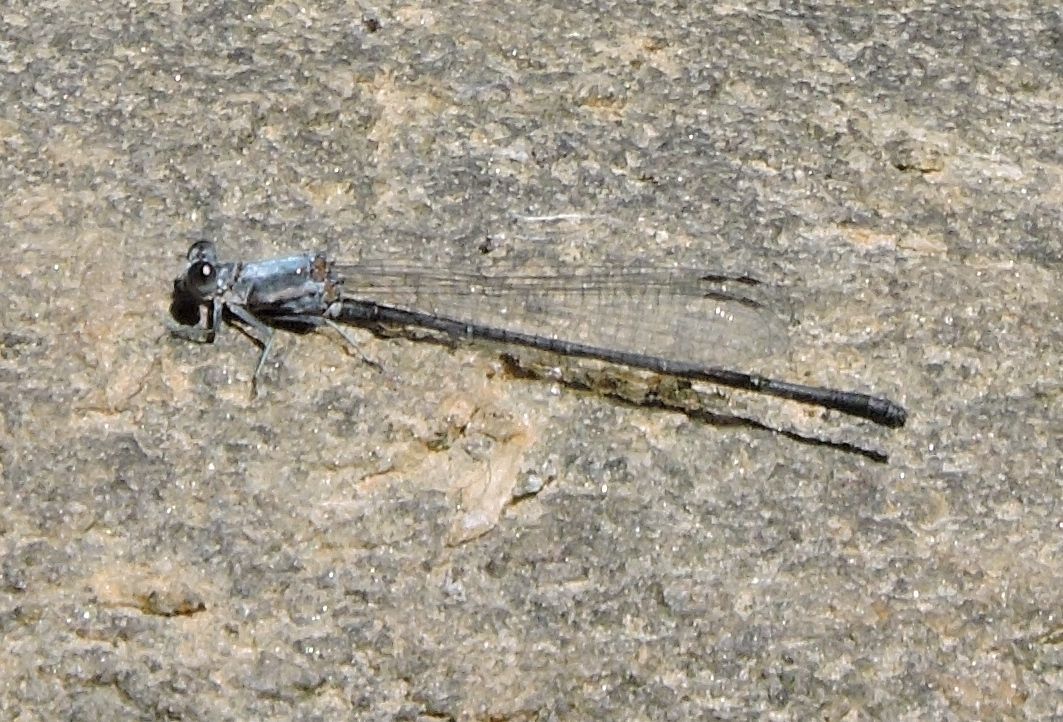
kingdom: Animalia
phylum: Arthropoda
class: Insecta
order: Odonata
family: Coenagrionidae
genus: Argia
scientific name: Argia moesta
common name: Powdered dancer
